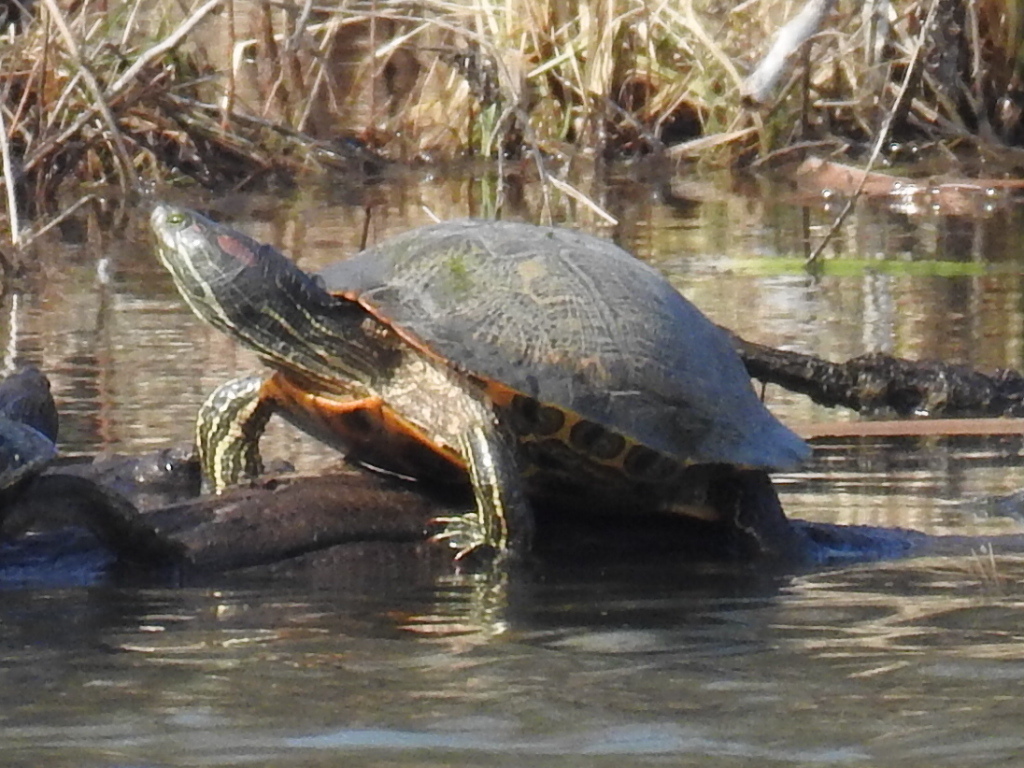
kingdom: Animalia
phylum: Chordata
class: Testudines
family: Emydidae
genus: Trachemys
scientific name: Trachemys scripta
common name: Slider
